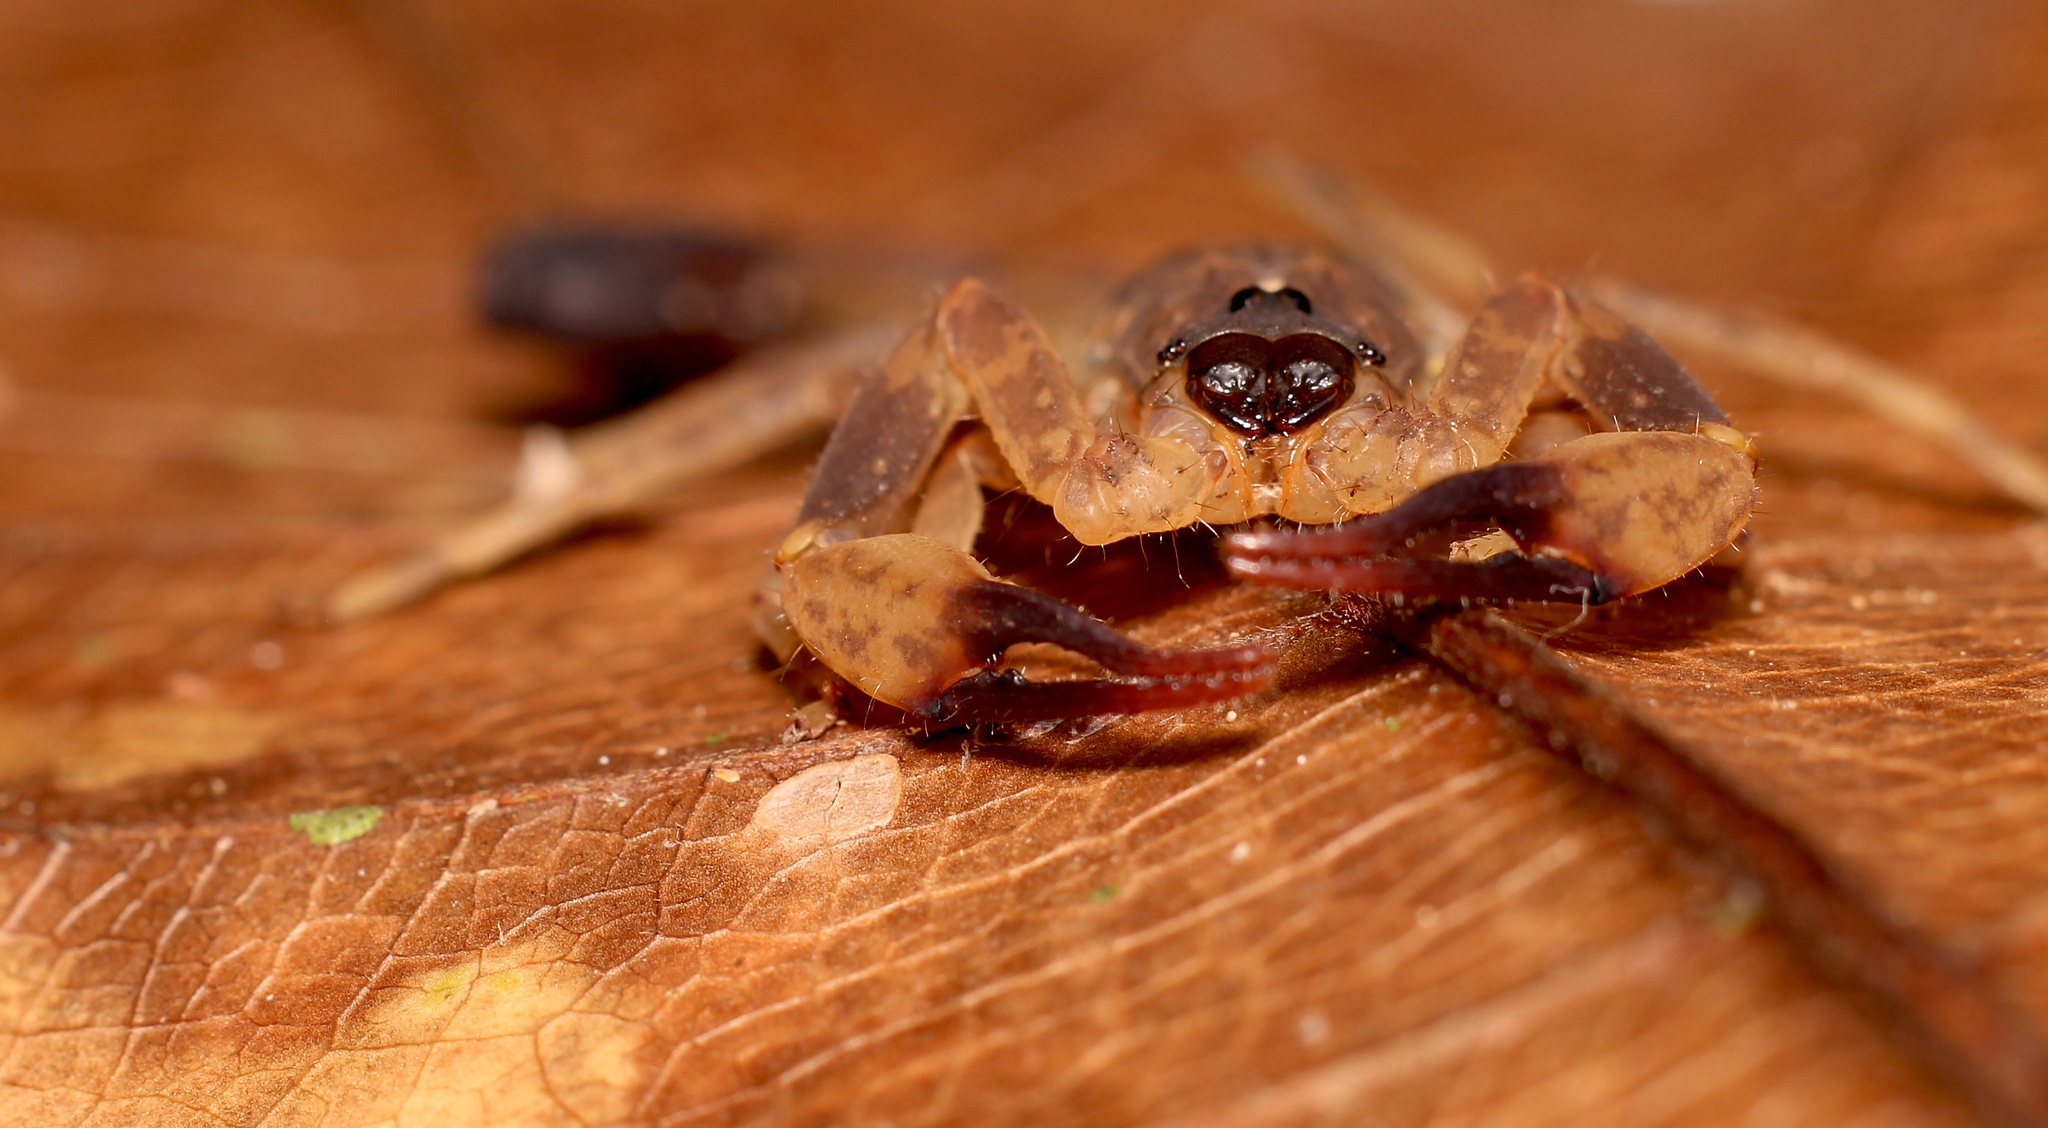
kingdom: Animalia
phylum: Arthropoda
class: Arachnida
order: Scorpiones
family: Buthidae
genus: Lychas
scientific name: Lychas mucronatus
